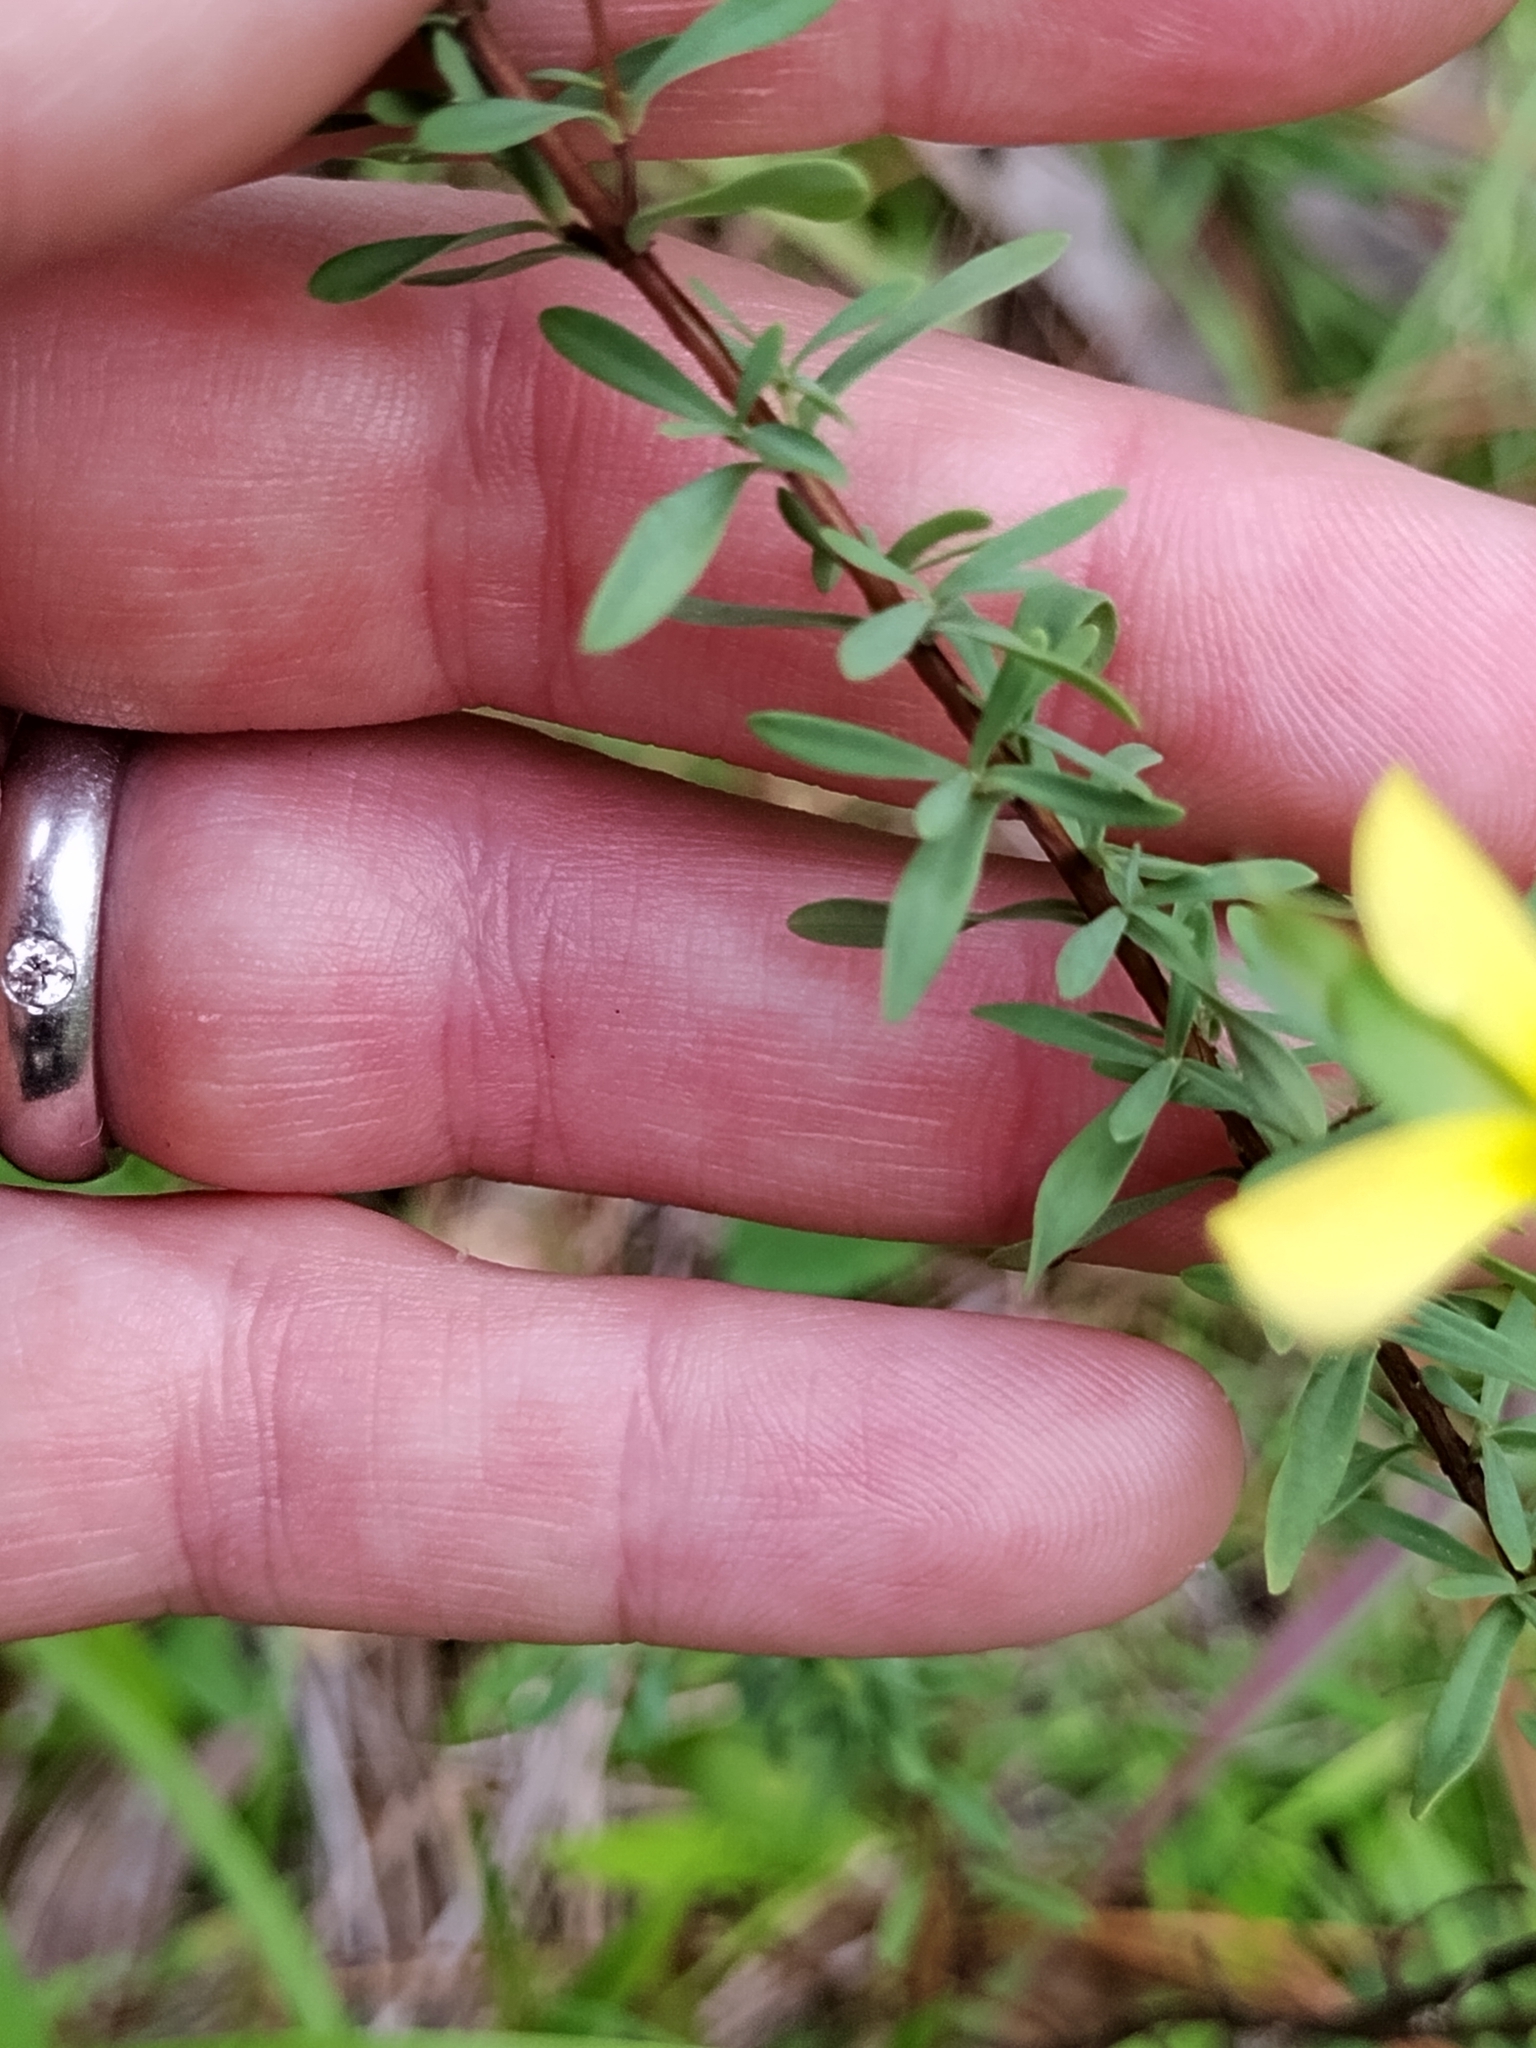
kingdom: Plantae
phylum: Tracheophyta
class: Magnoliopsida
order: Malpighiales
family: Hypericaceae
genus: Hypericum
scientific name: Hypericum hypericoides
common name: St. andrew's cross
